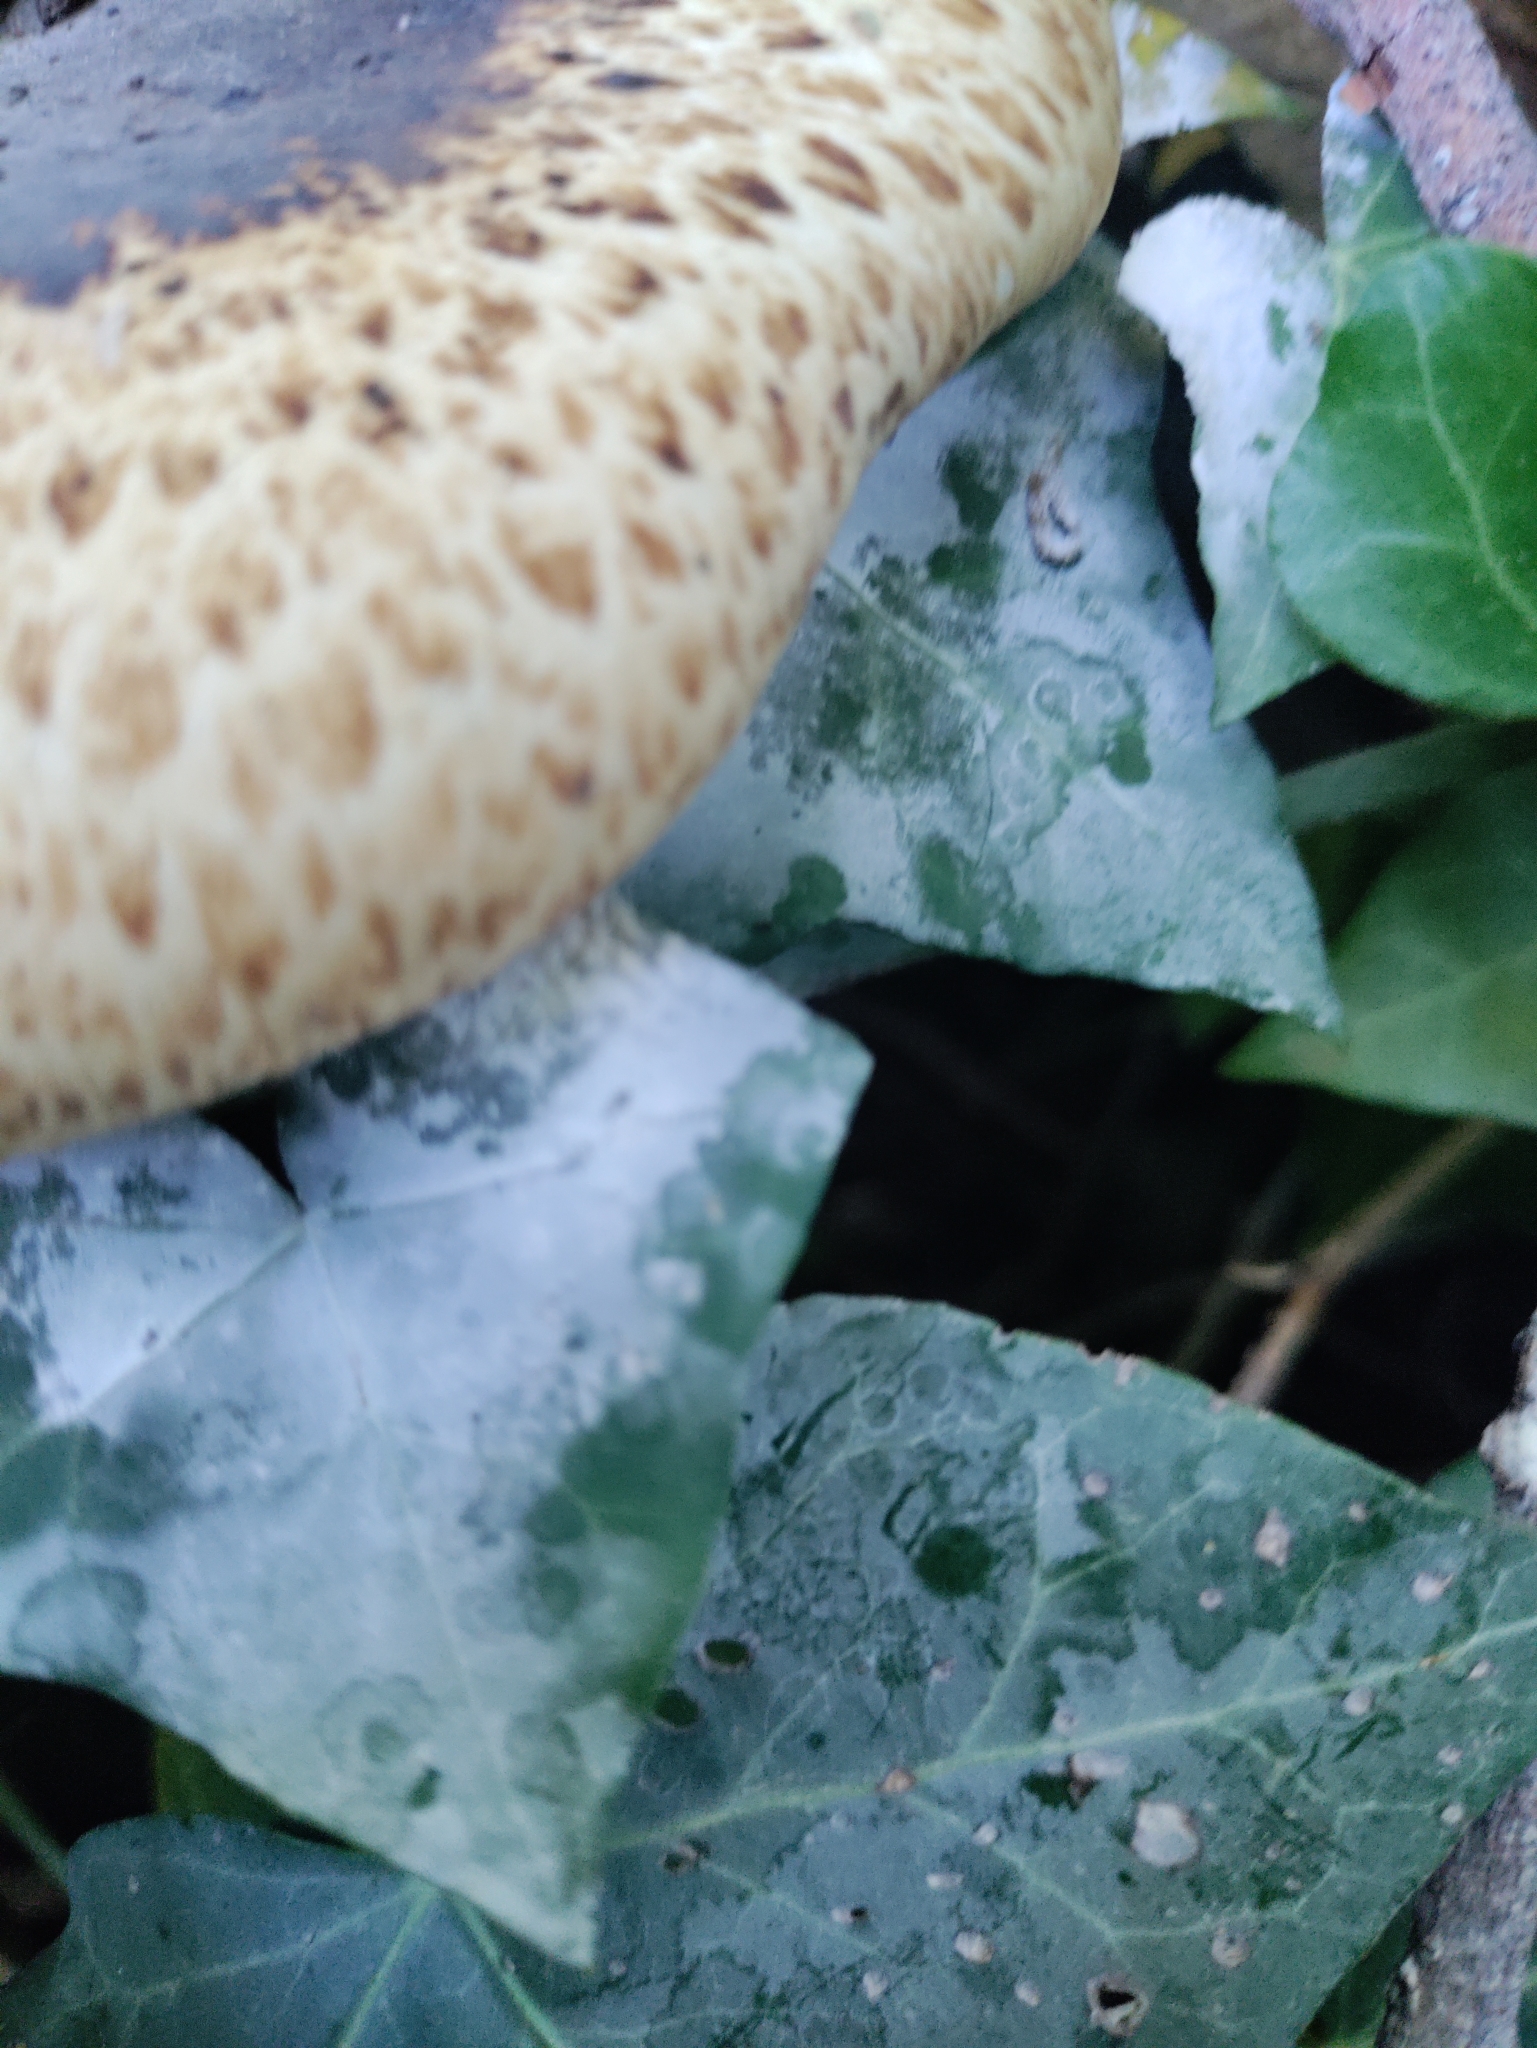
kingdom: Fungi
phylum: Basidiomycota
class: Agaricomycetes
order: Polyporales
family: Polyporaceae
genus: Cerioporus
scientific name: Cerioporus squamosus
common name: Dryad's saddle
